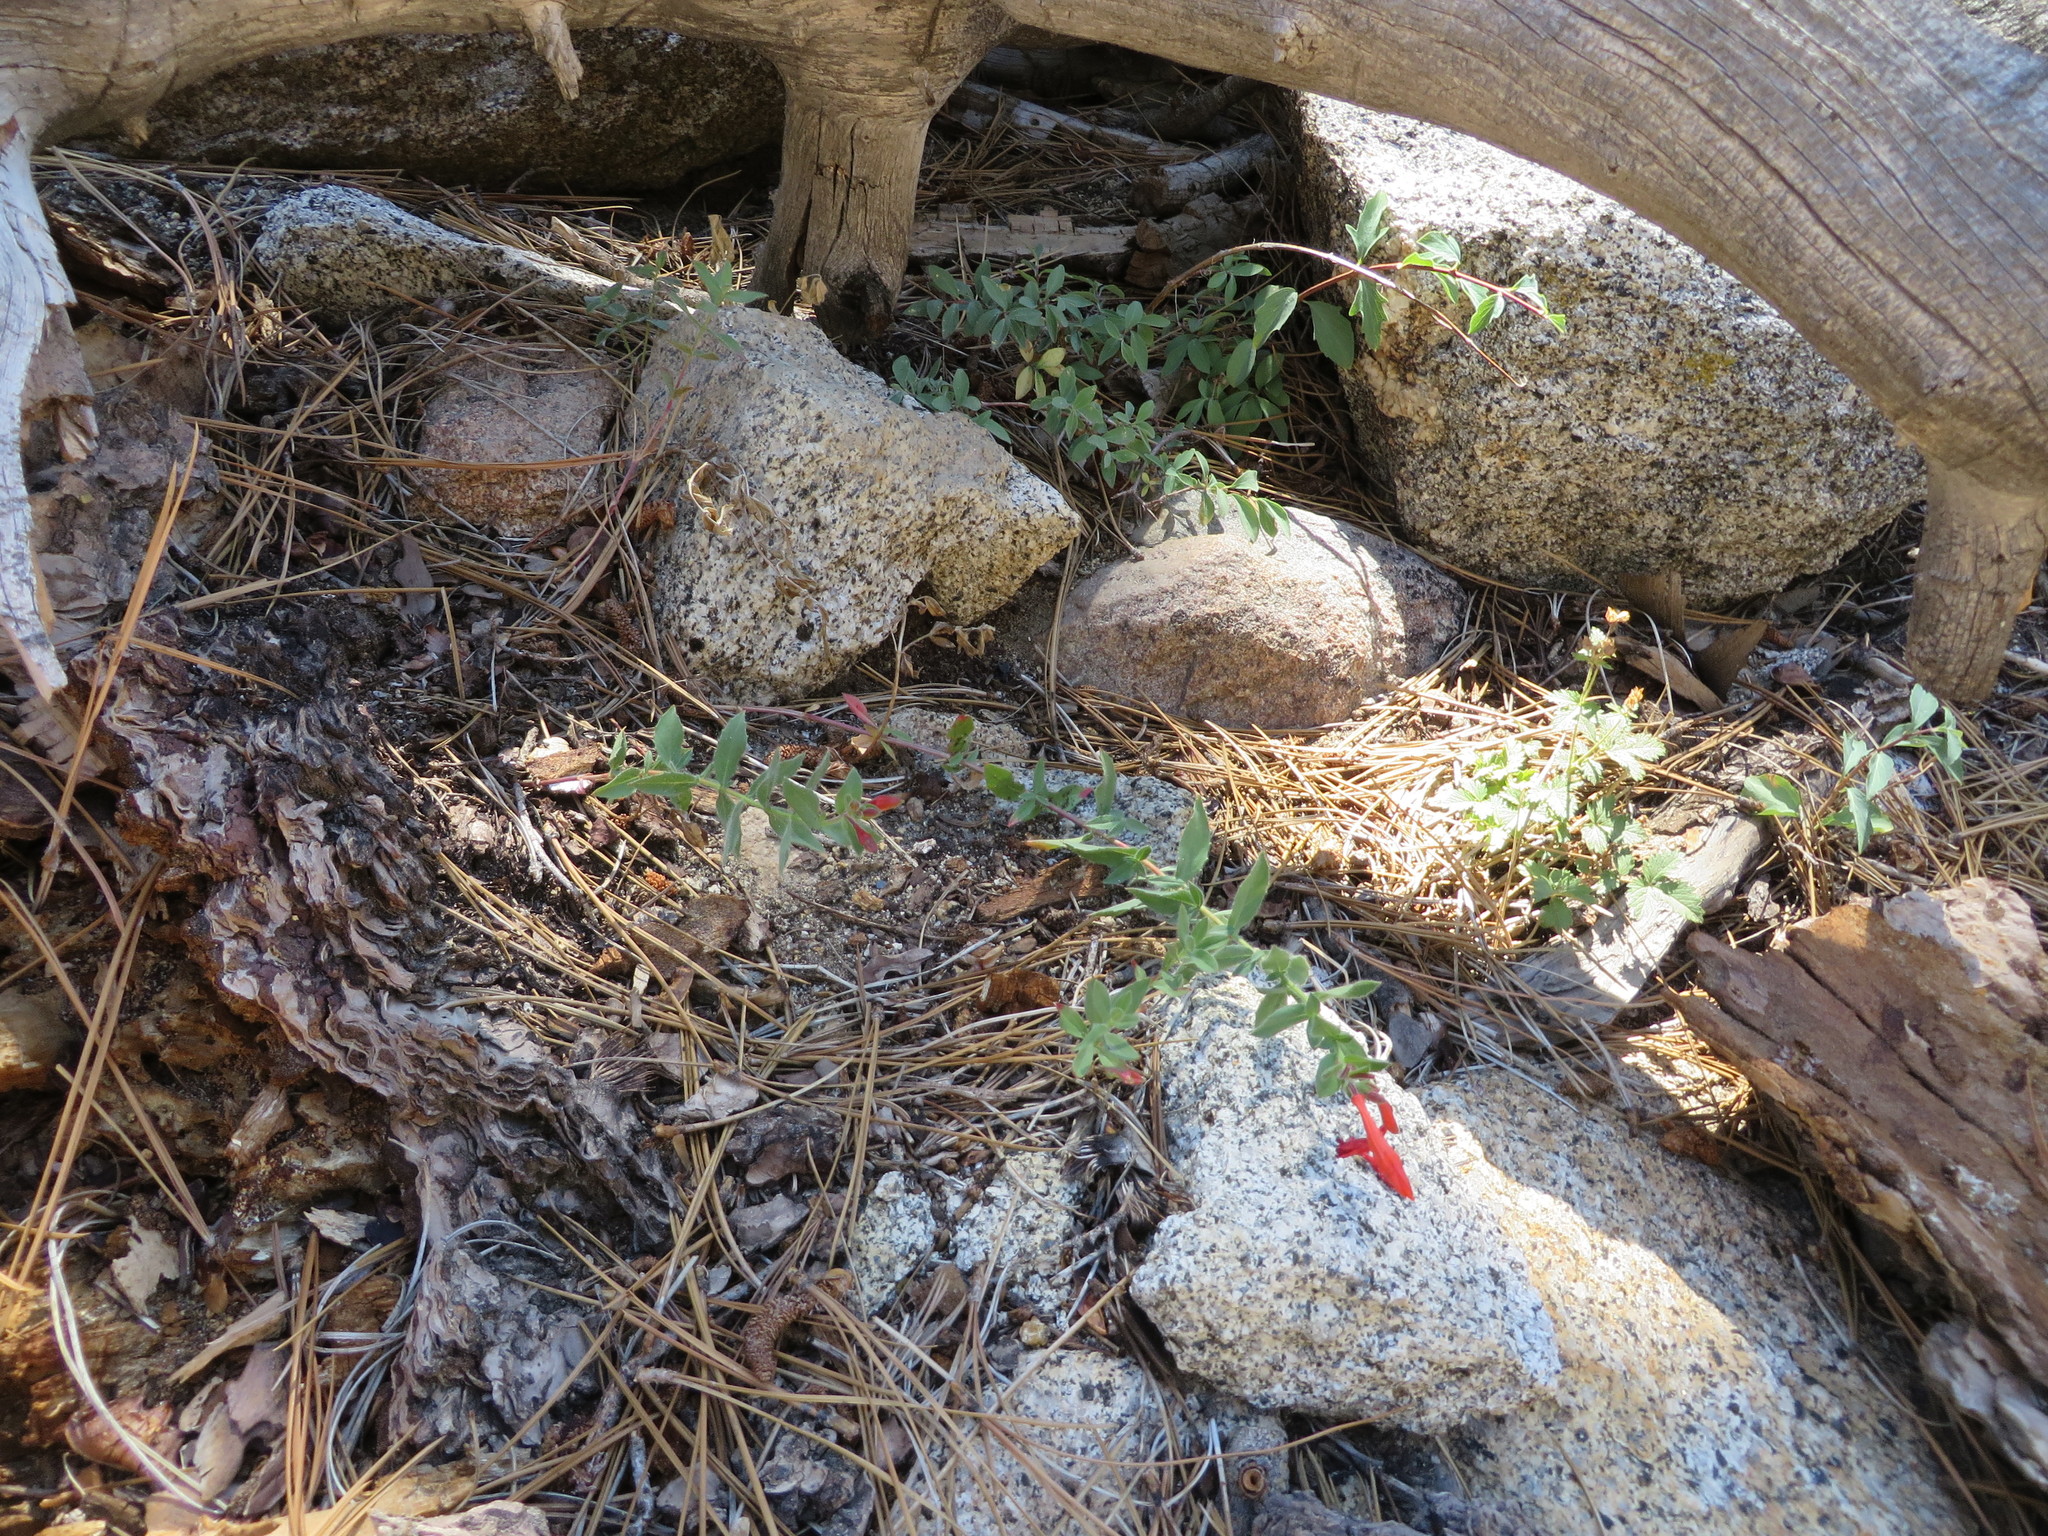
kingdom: Plantae
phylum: Tracheophyta
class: Magnoliopsida
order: Myrtales
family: Onagraceae
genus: Epilobium
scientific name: Epilobium canum
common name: California-fuchsia
